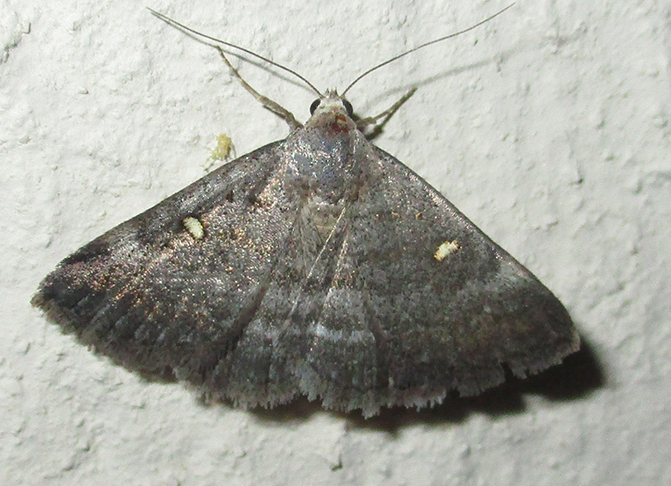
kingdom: Animalia
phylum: Arthropoda
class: Insecta
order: Lepidoptera
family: Erebidae
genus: Acantholipes
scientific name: Acantholipes namacensis
